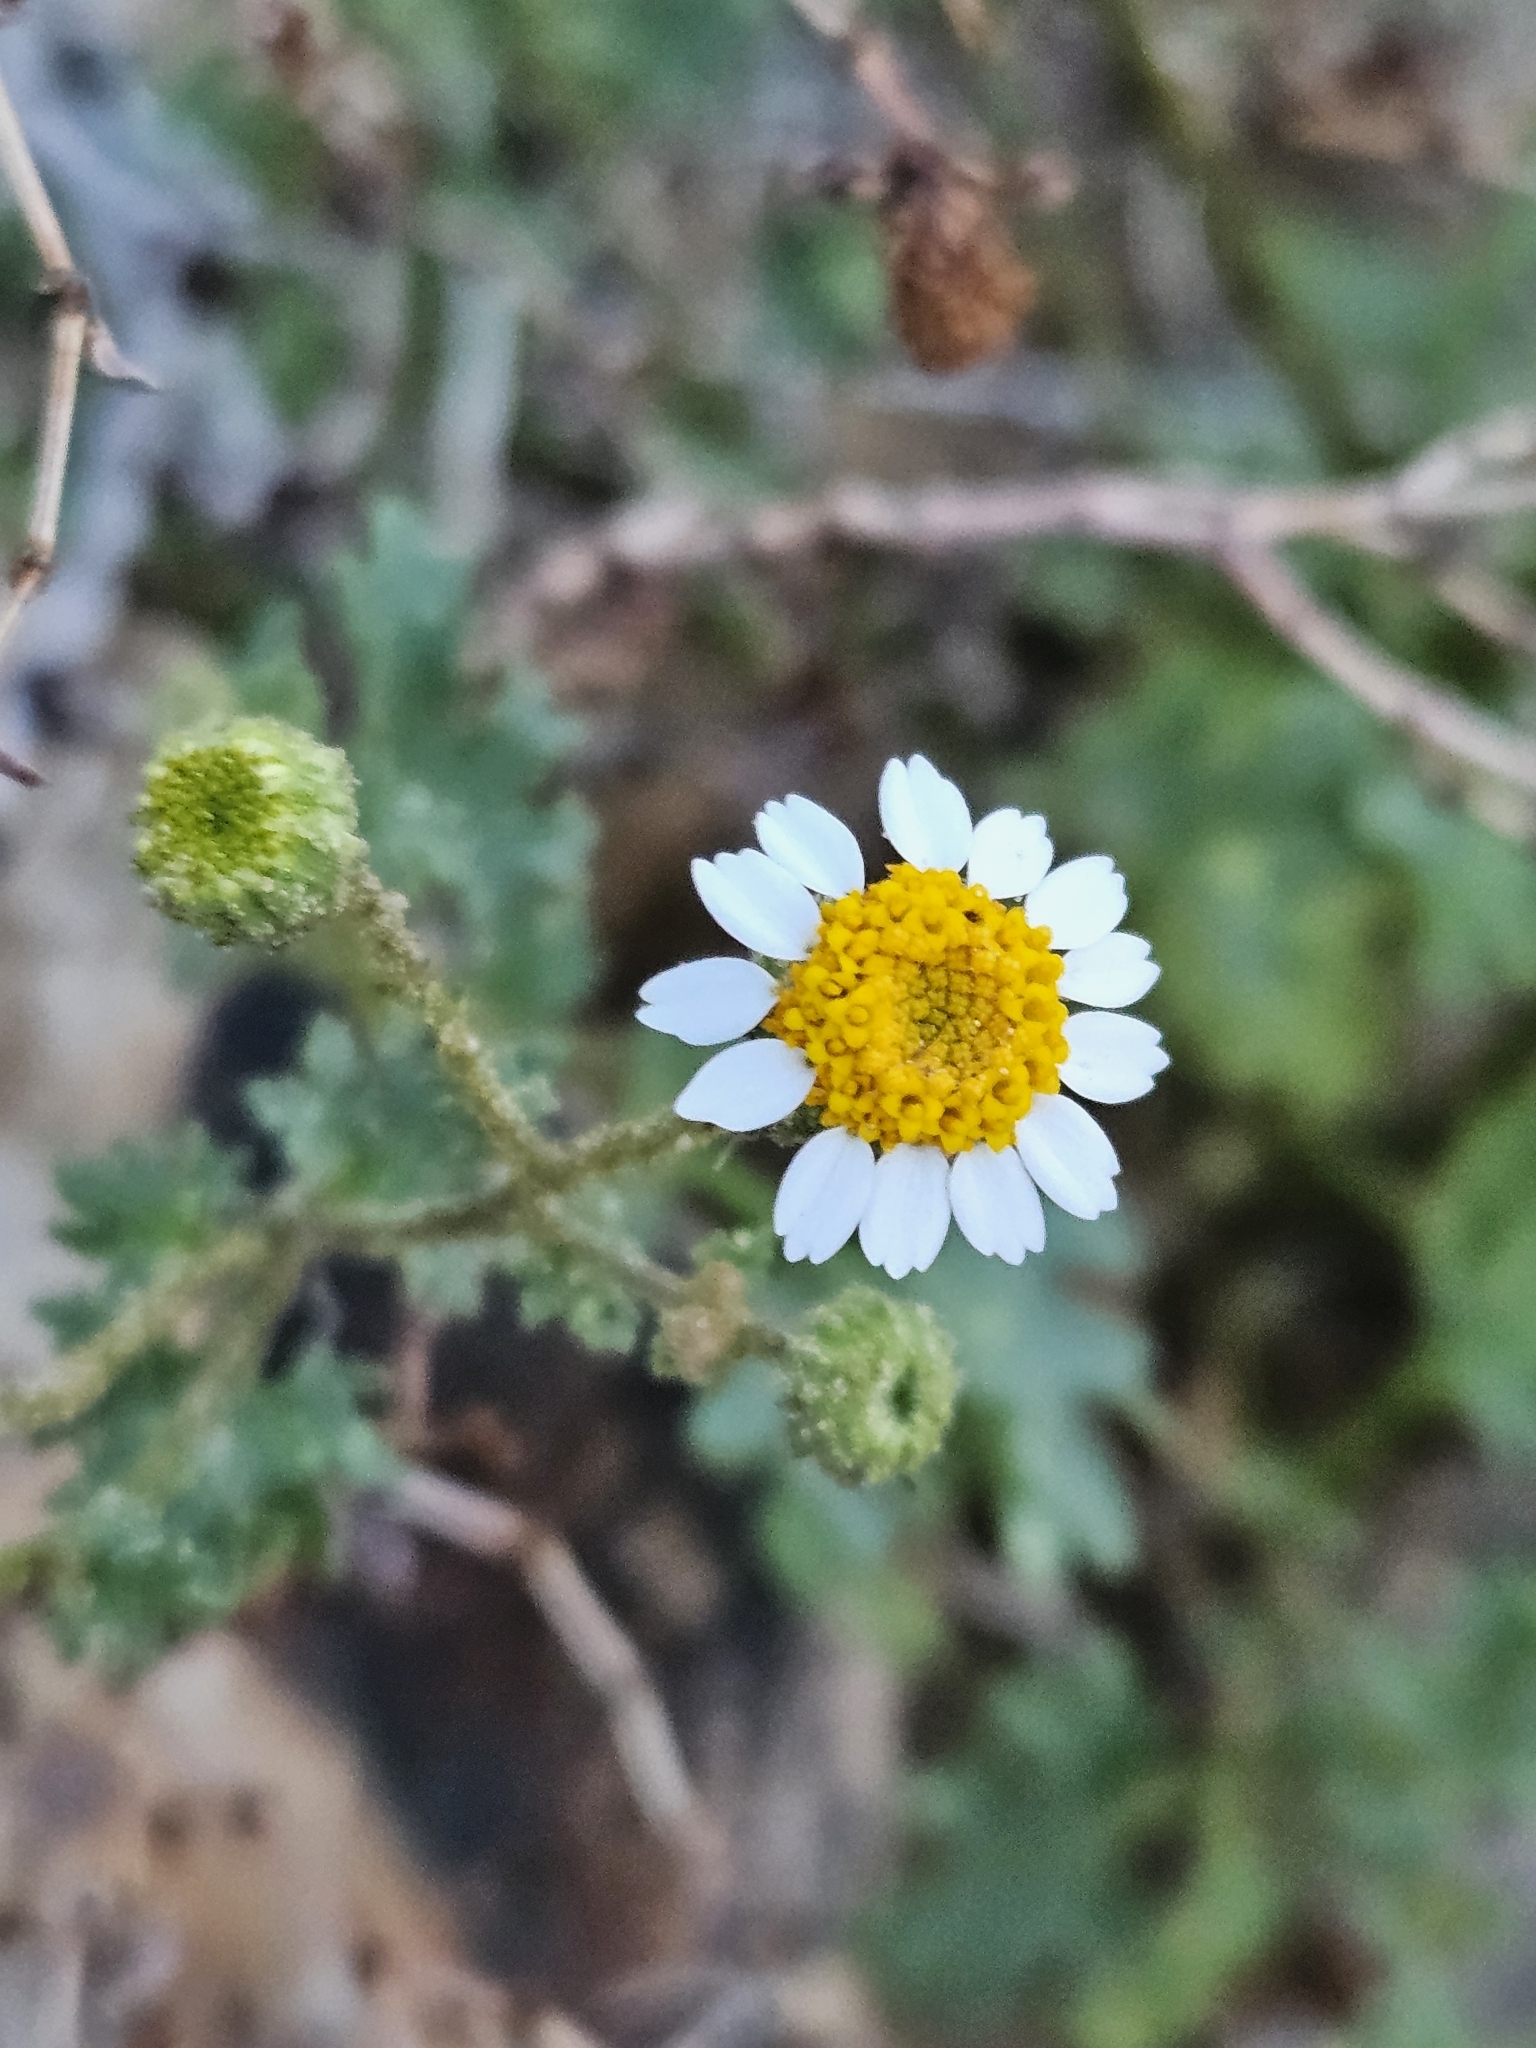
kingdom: Plantae
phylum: Tracheophyta
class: Magnoliopsida
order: Asterales
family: Asteraceae
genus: Laphamia
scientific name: Laphamia emoryi
